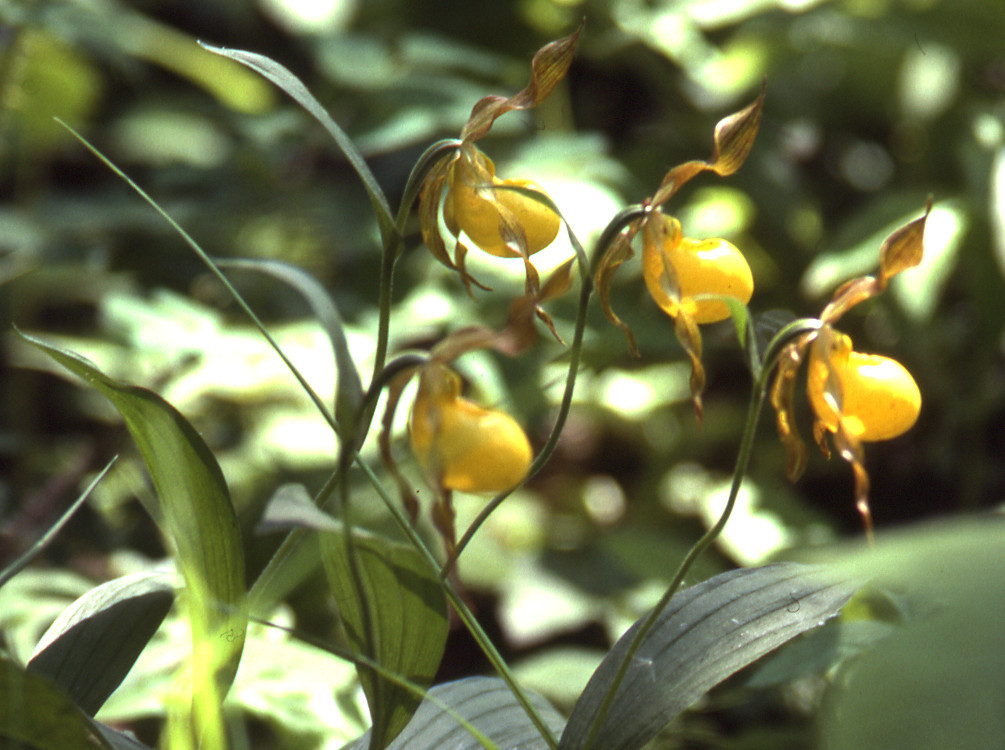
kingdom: Plantae
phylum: Tracheophyta
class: Liliopsida
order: Asparagales
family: Orchidaceae
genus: Cypripedium
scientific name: Cypripedium parviflorum
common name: American yellow lady's-slipper
